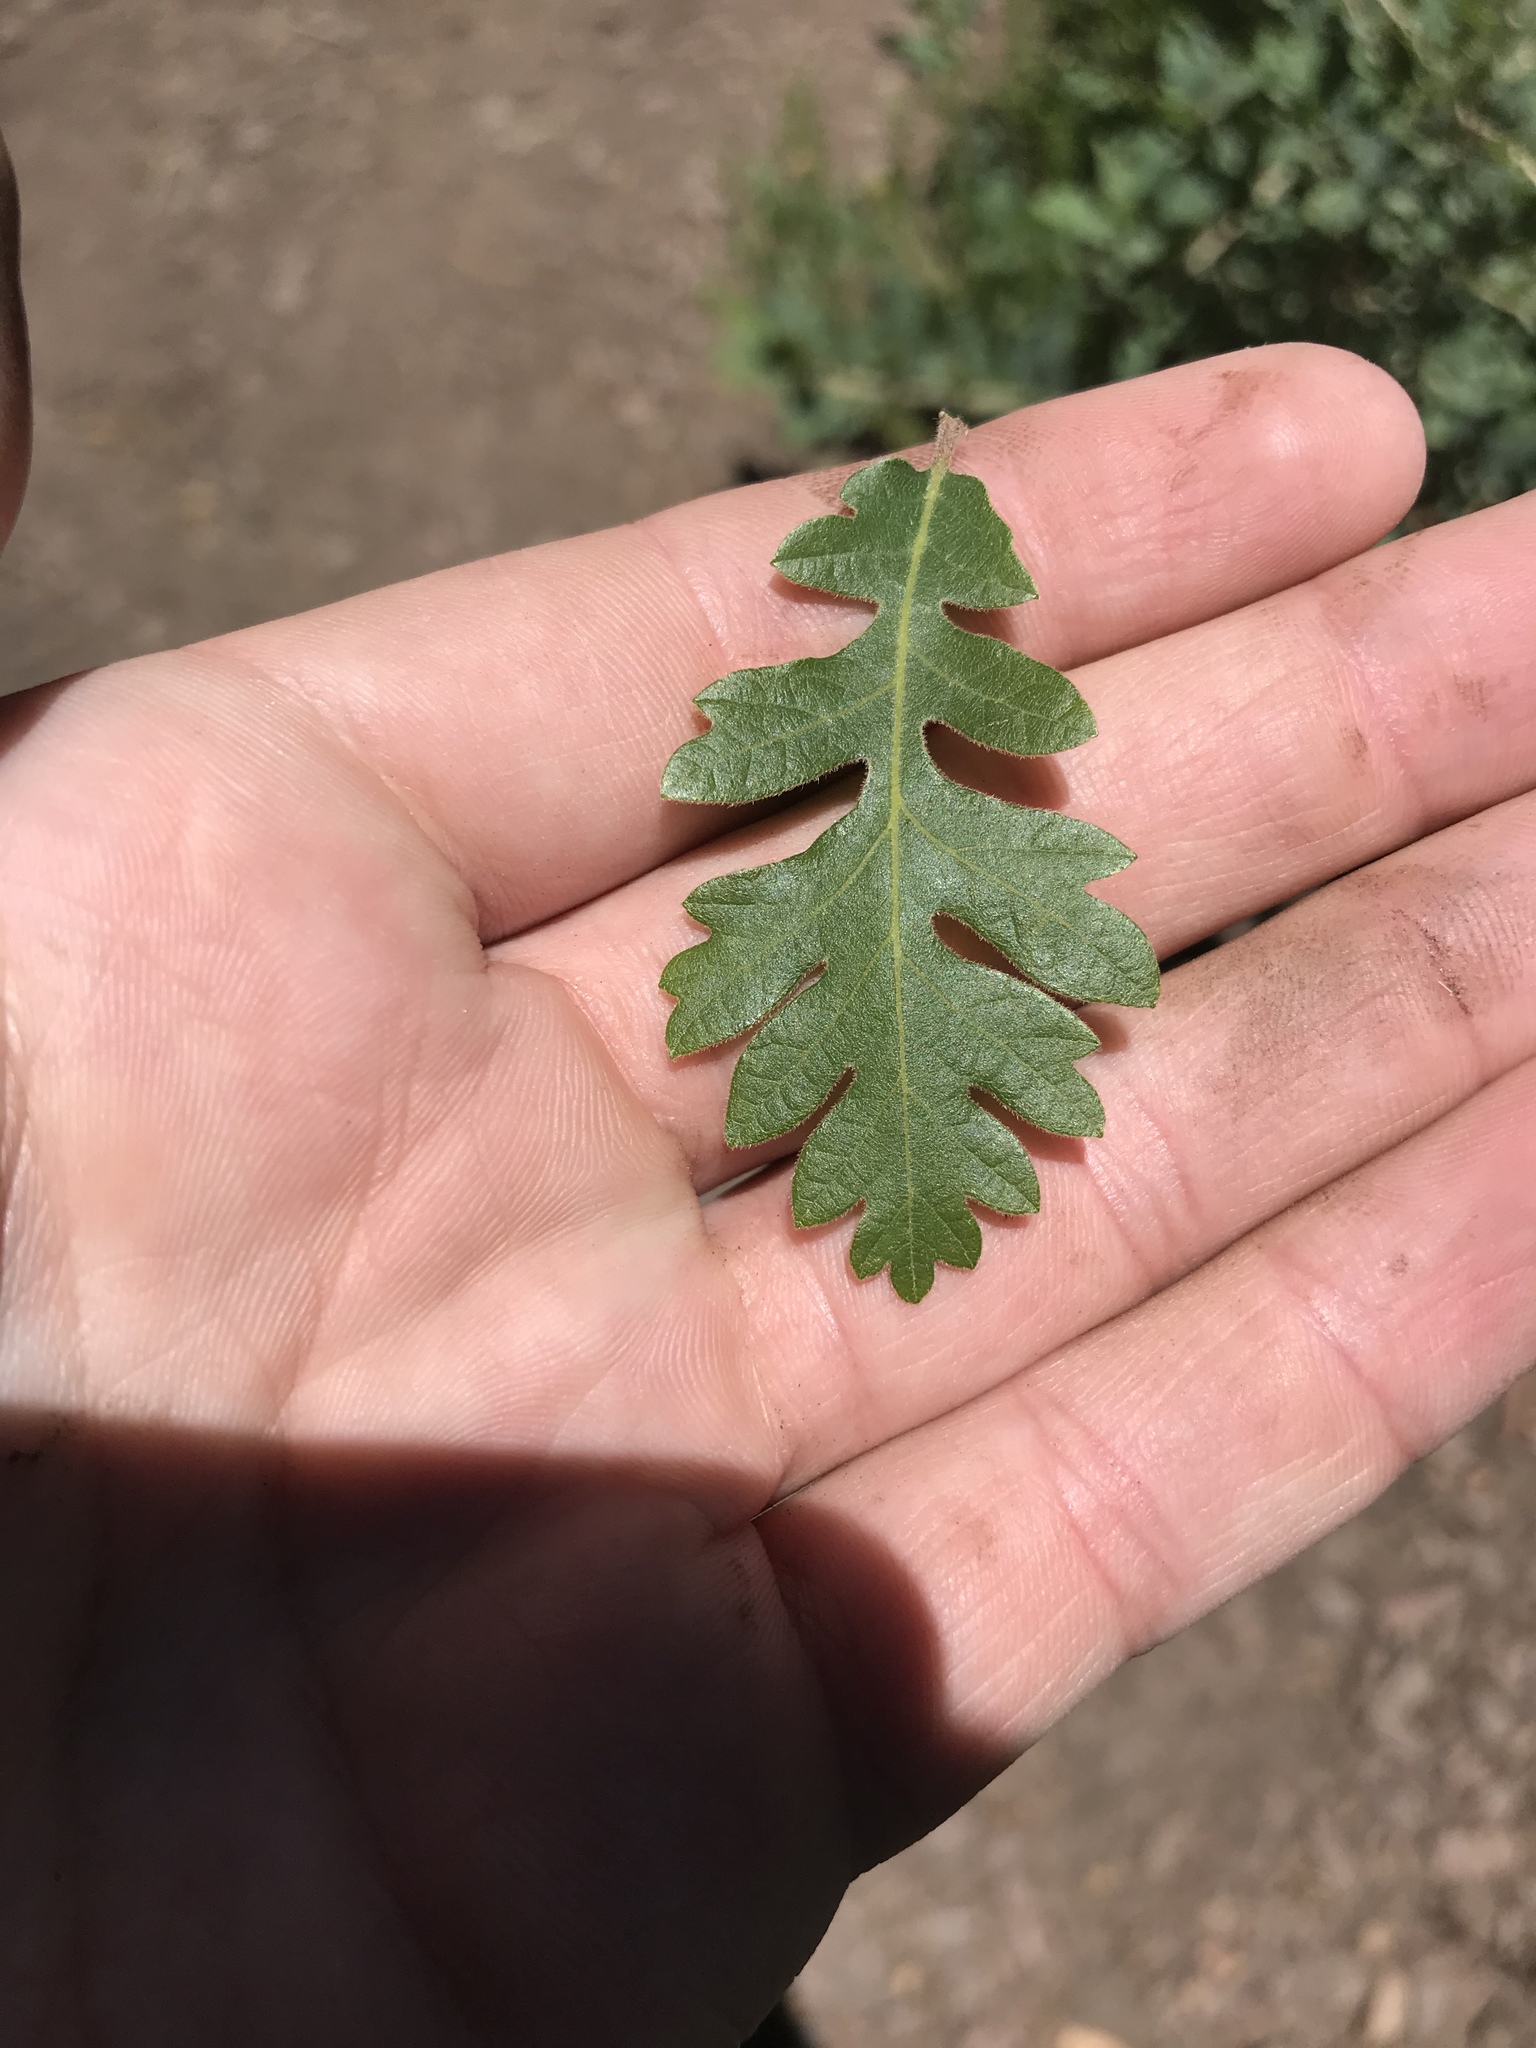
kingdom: Plantae
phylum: Tracheophyta
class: Magnoliopsida
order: Fagales
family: Fagaceae
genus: Quercus
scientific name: Quercus gambelii
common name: Gambel oak
